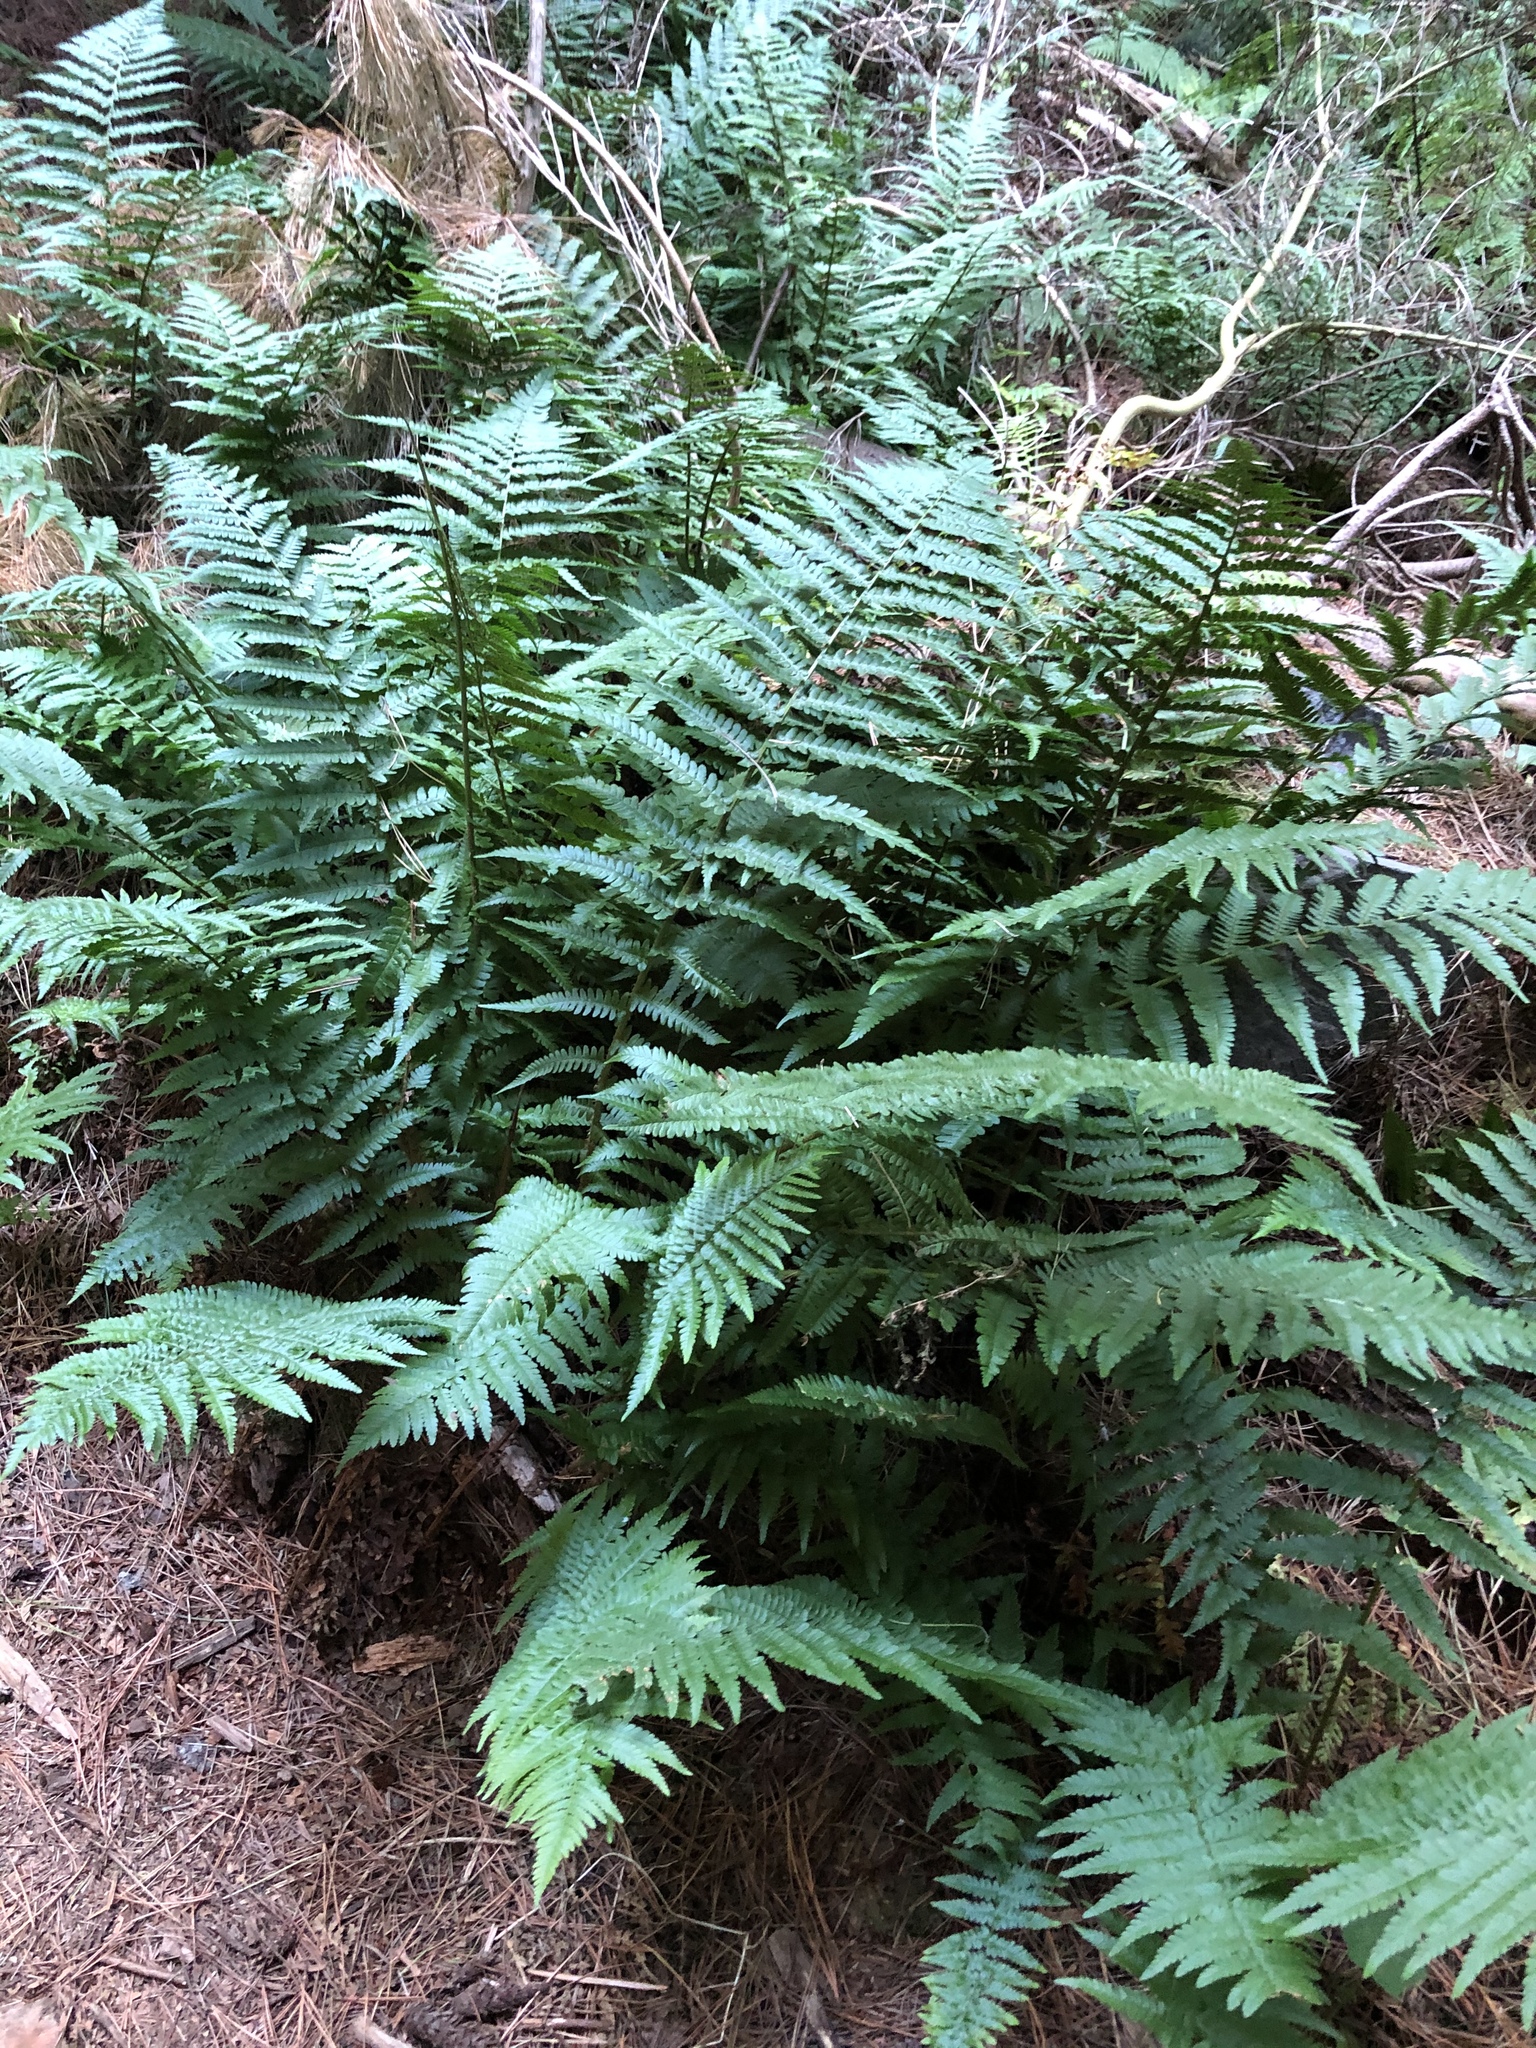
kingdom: Plantae
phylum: Tracheophyta
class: Polypodiopsida
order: Polypodiales
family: Dryopteridaceae
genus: Dryopteris
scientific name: Dryopteris filix-mas
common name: Male fern
